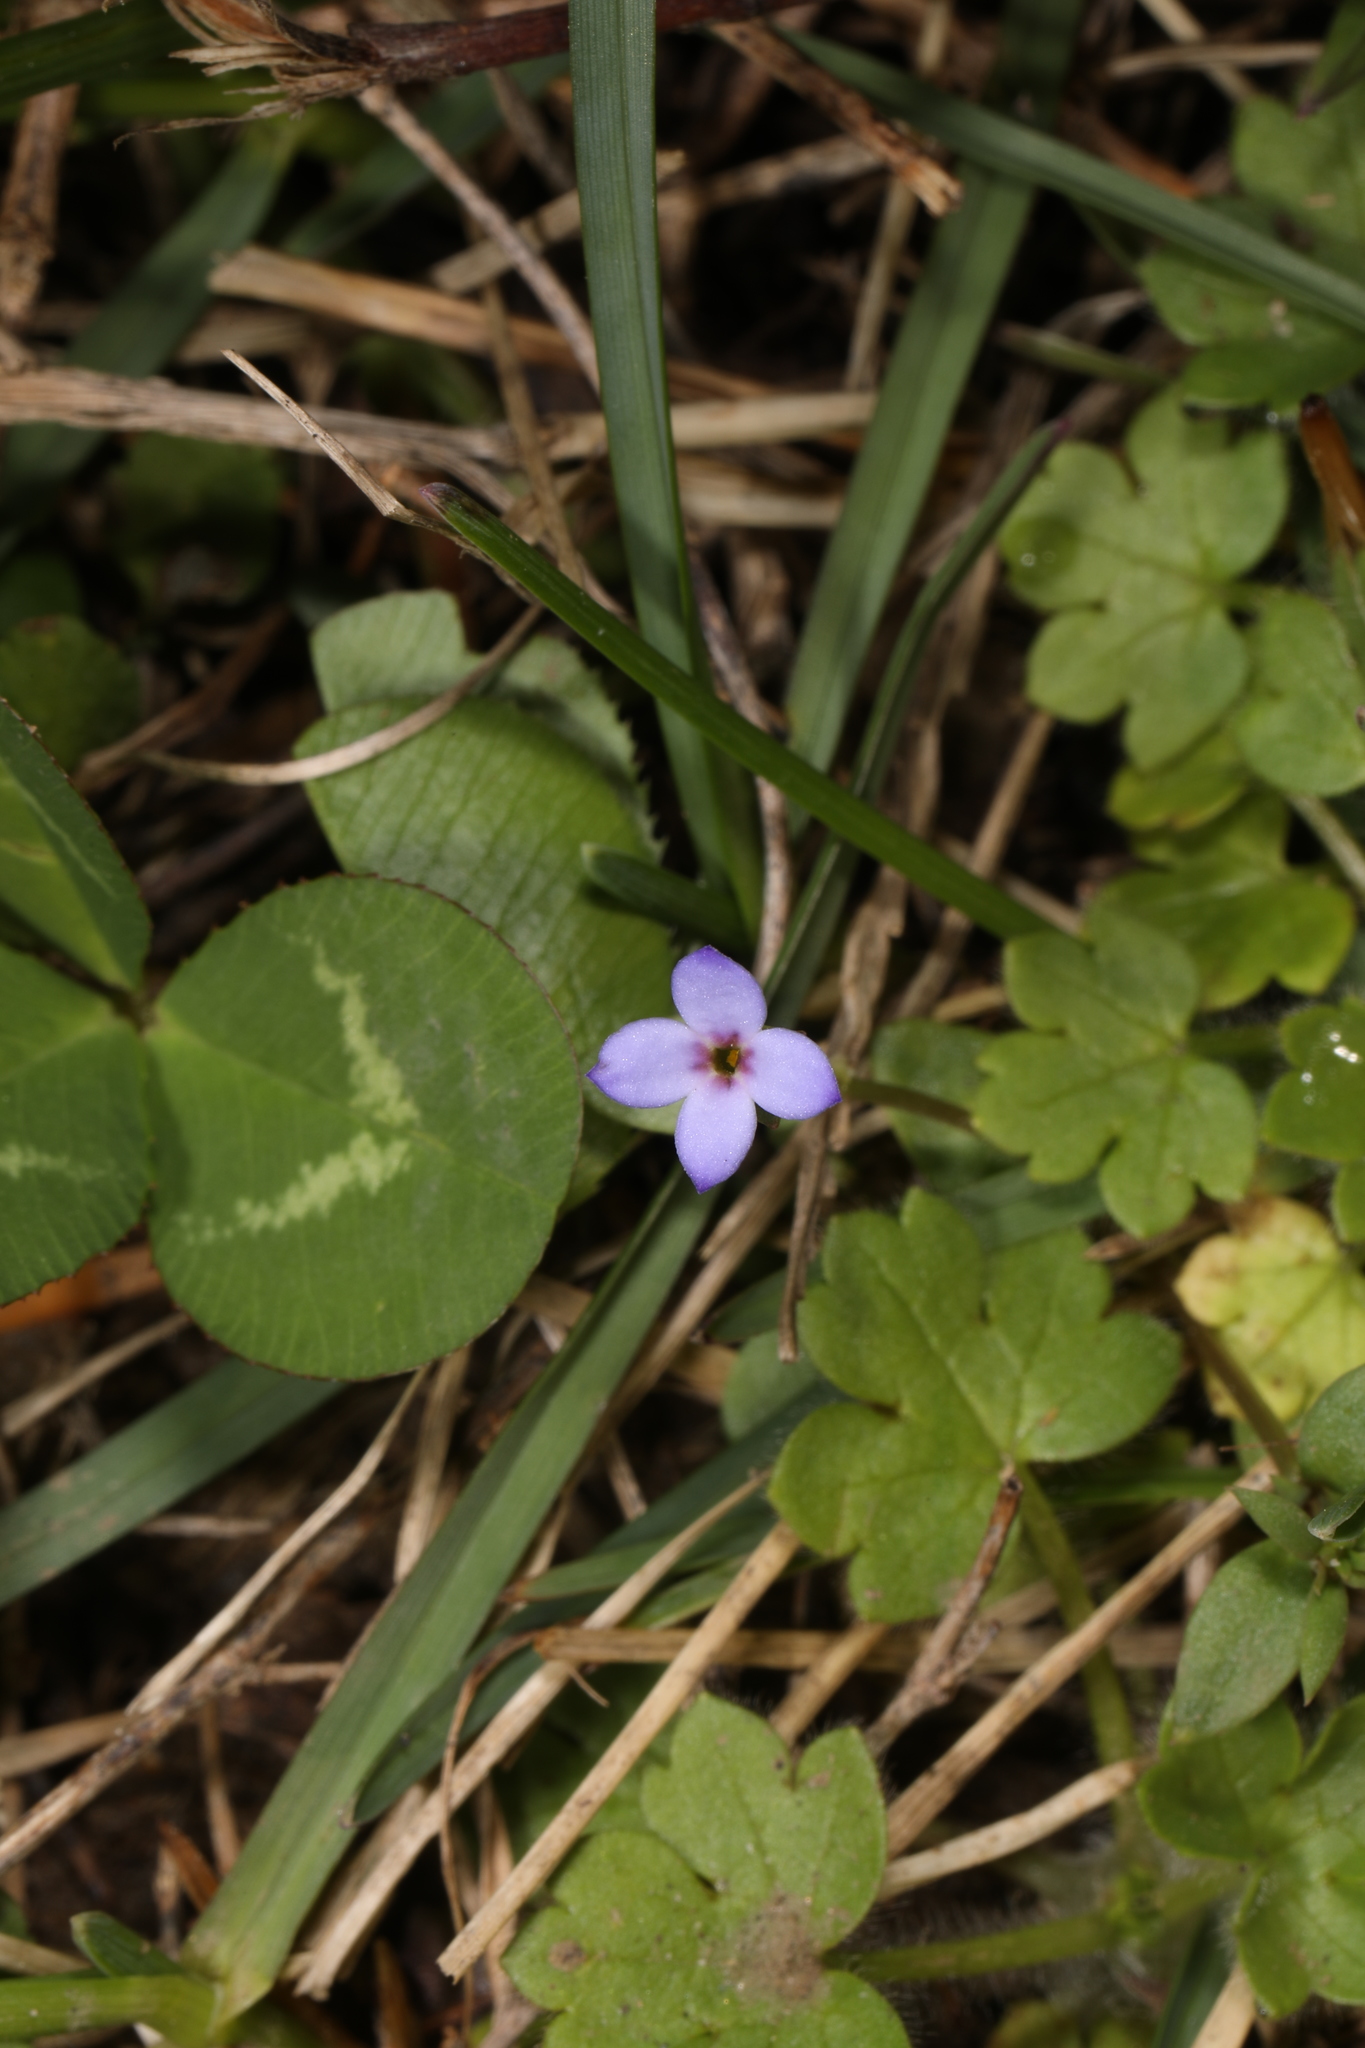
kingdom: Plantae
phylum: Tracheophyta
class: Magnoliopsida
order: Gentianales
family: Rubiaceae
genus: Houstonia
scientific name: Houstonia pusilla
